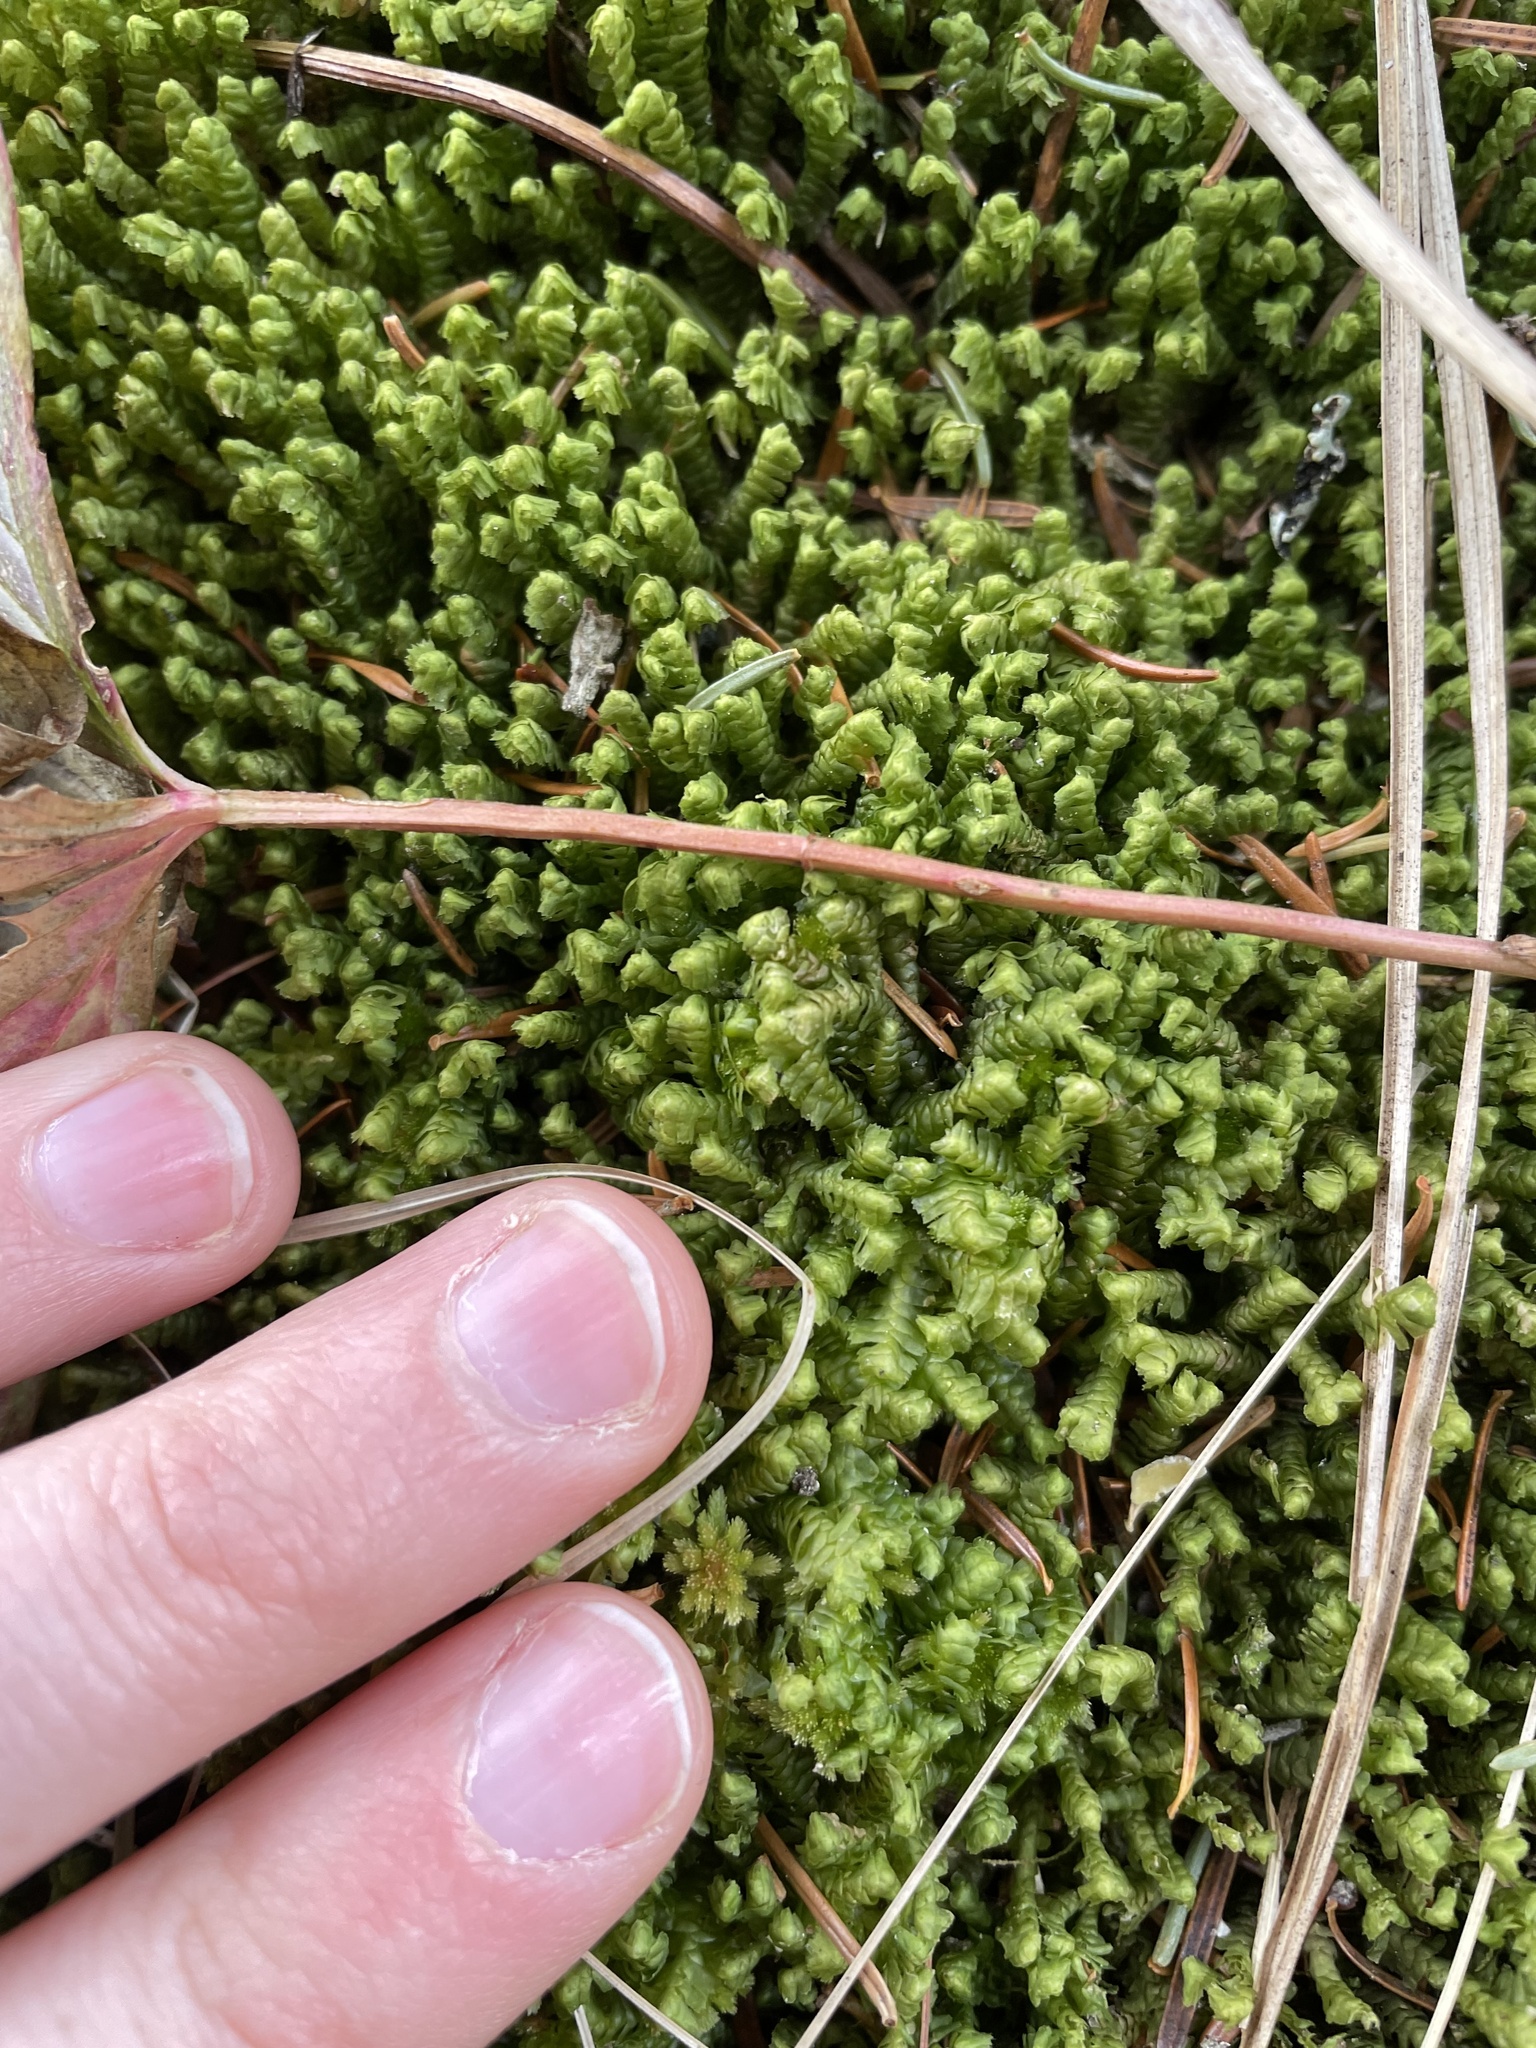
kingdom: Plantae
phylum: Marchantiophyta
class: Jungermanniopsida
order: Jungermanniales
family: Lepidoziaceae
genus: Bazzania
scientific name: Bazzania trilobata
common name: Three-lobed whipwort
